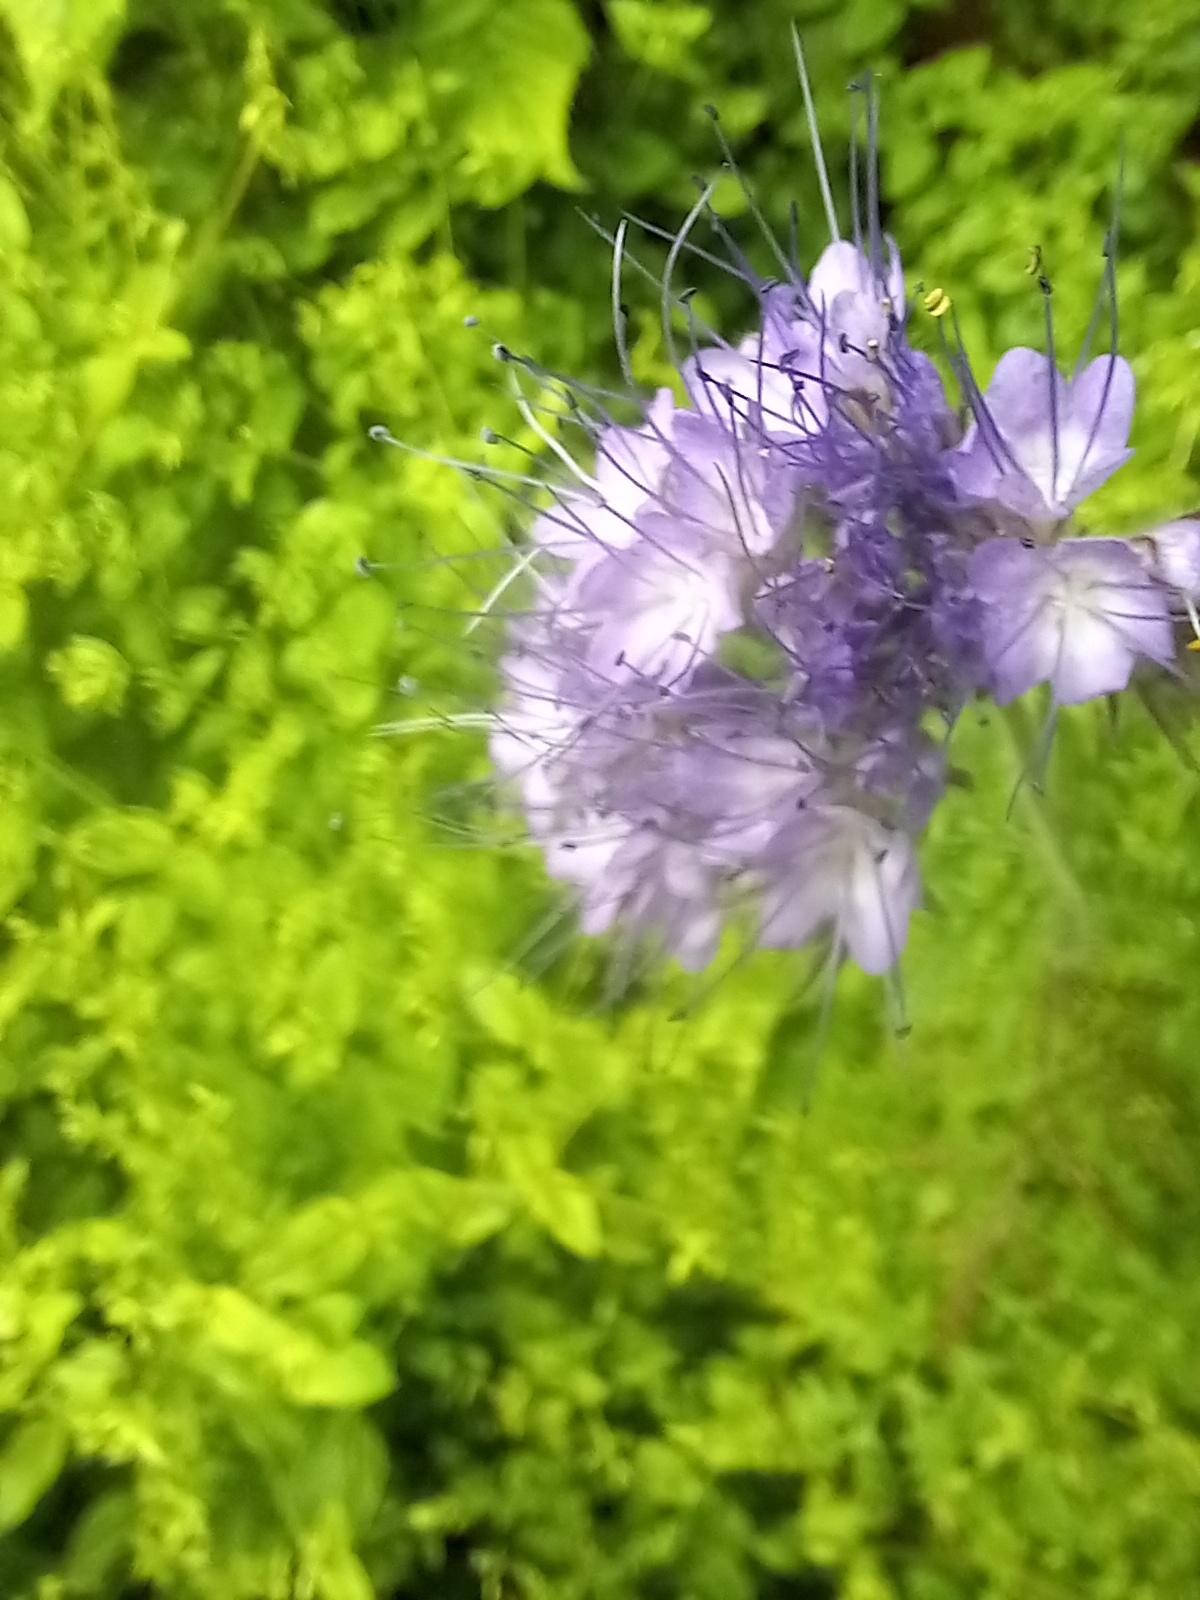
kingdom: Plantae
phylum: Tracheophyta
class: Magnoliopsida
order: Boraginales
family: Hydrophyllaceae
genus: Phacelia
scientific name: Phacelia tanacetifolia
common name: Phacelia
